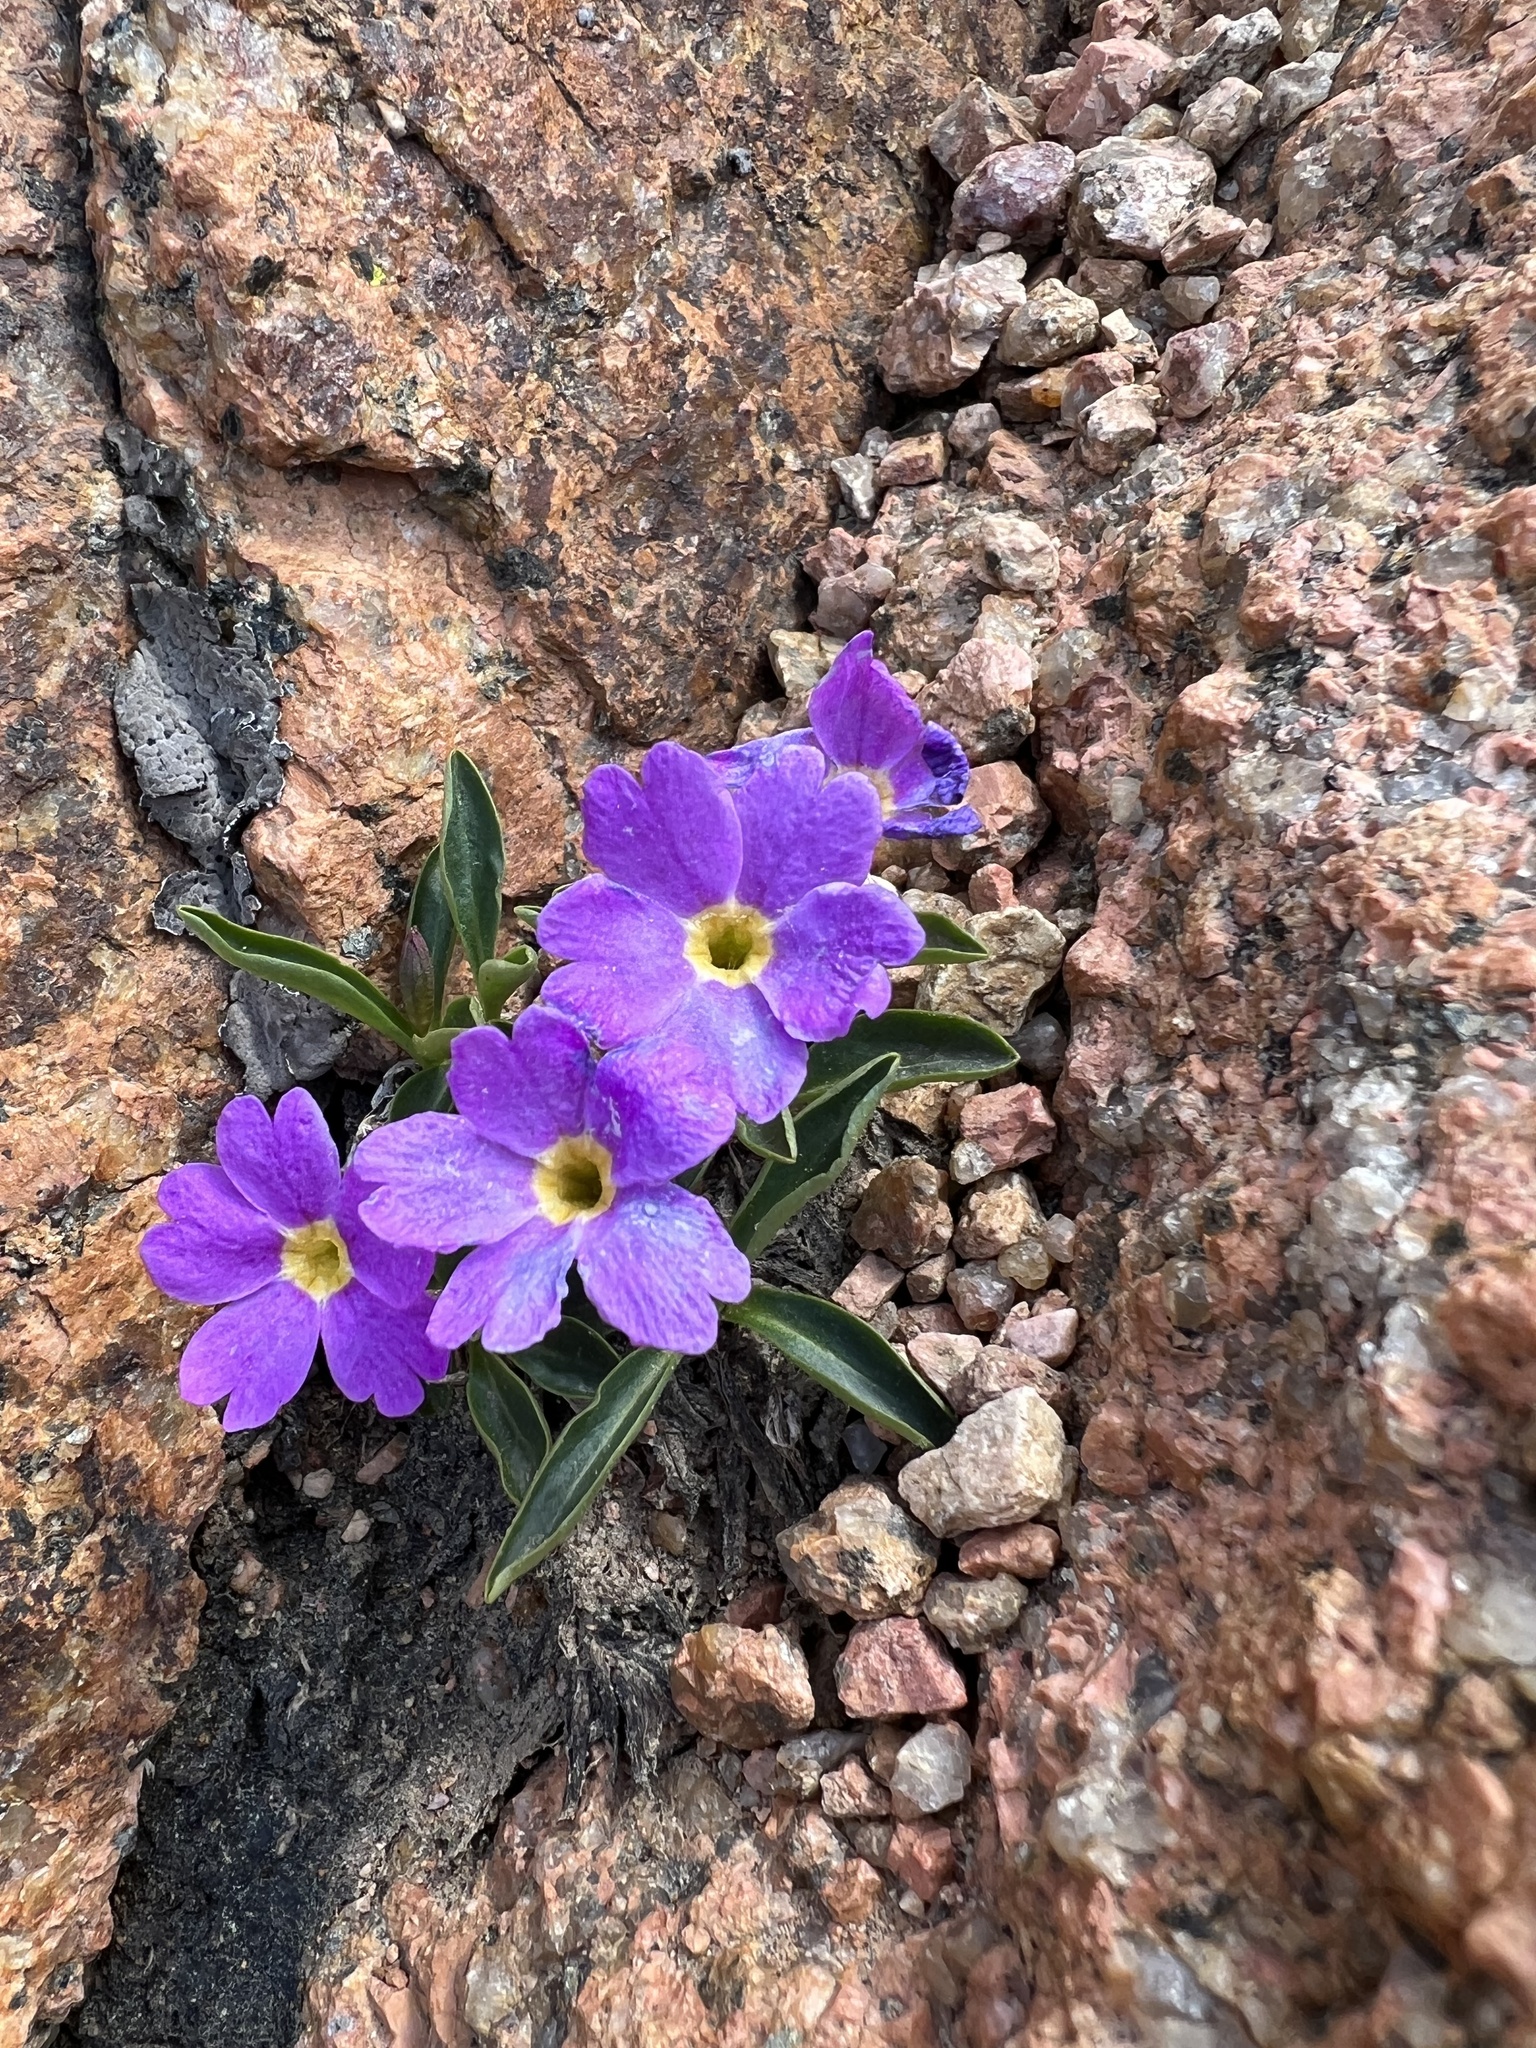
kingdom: Plantae
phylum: Tracheophyta
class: Magnoliopsida
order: Ericales
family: Primulaceae
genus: Primula
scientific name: Primula angustifolia
